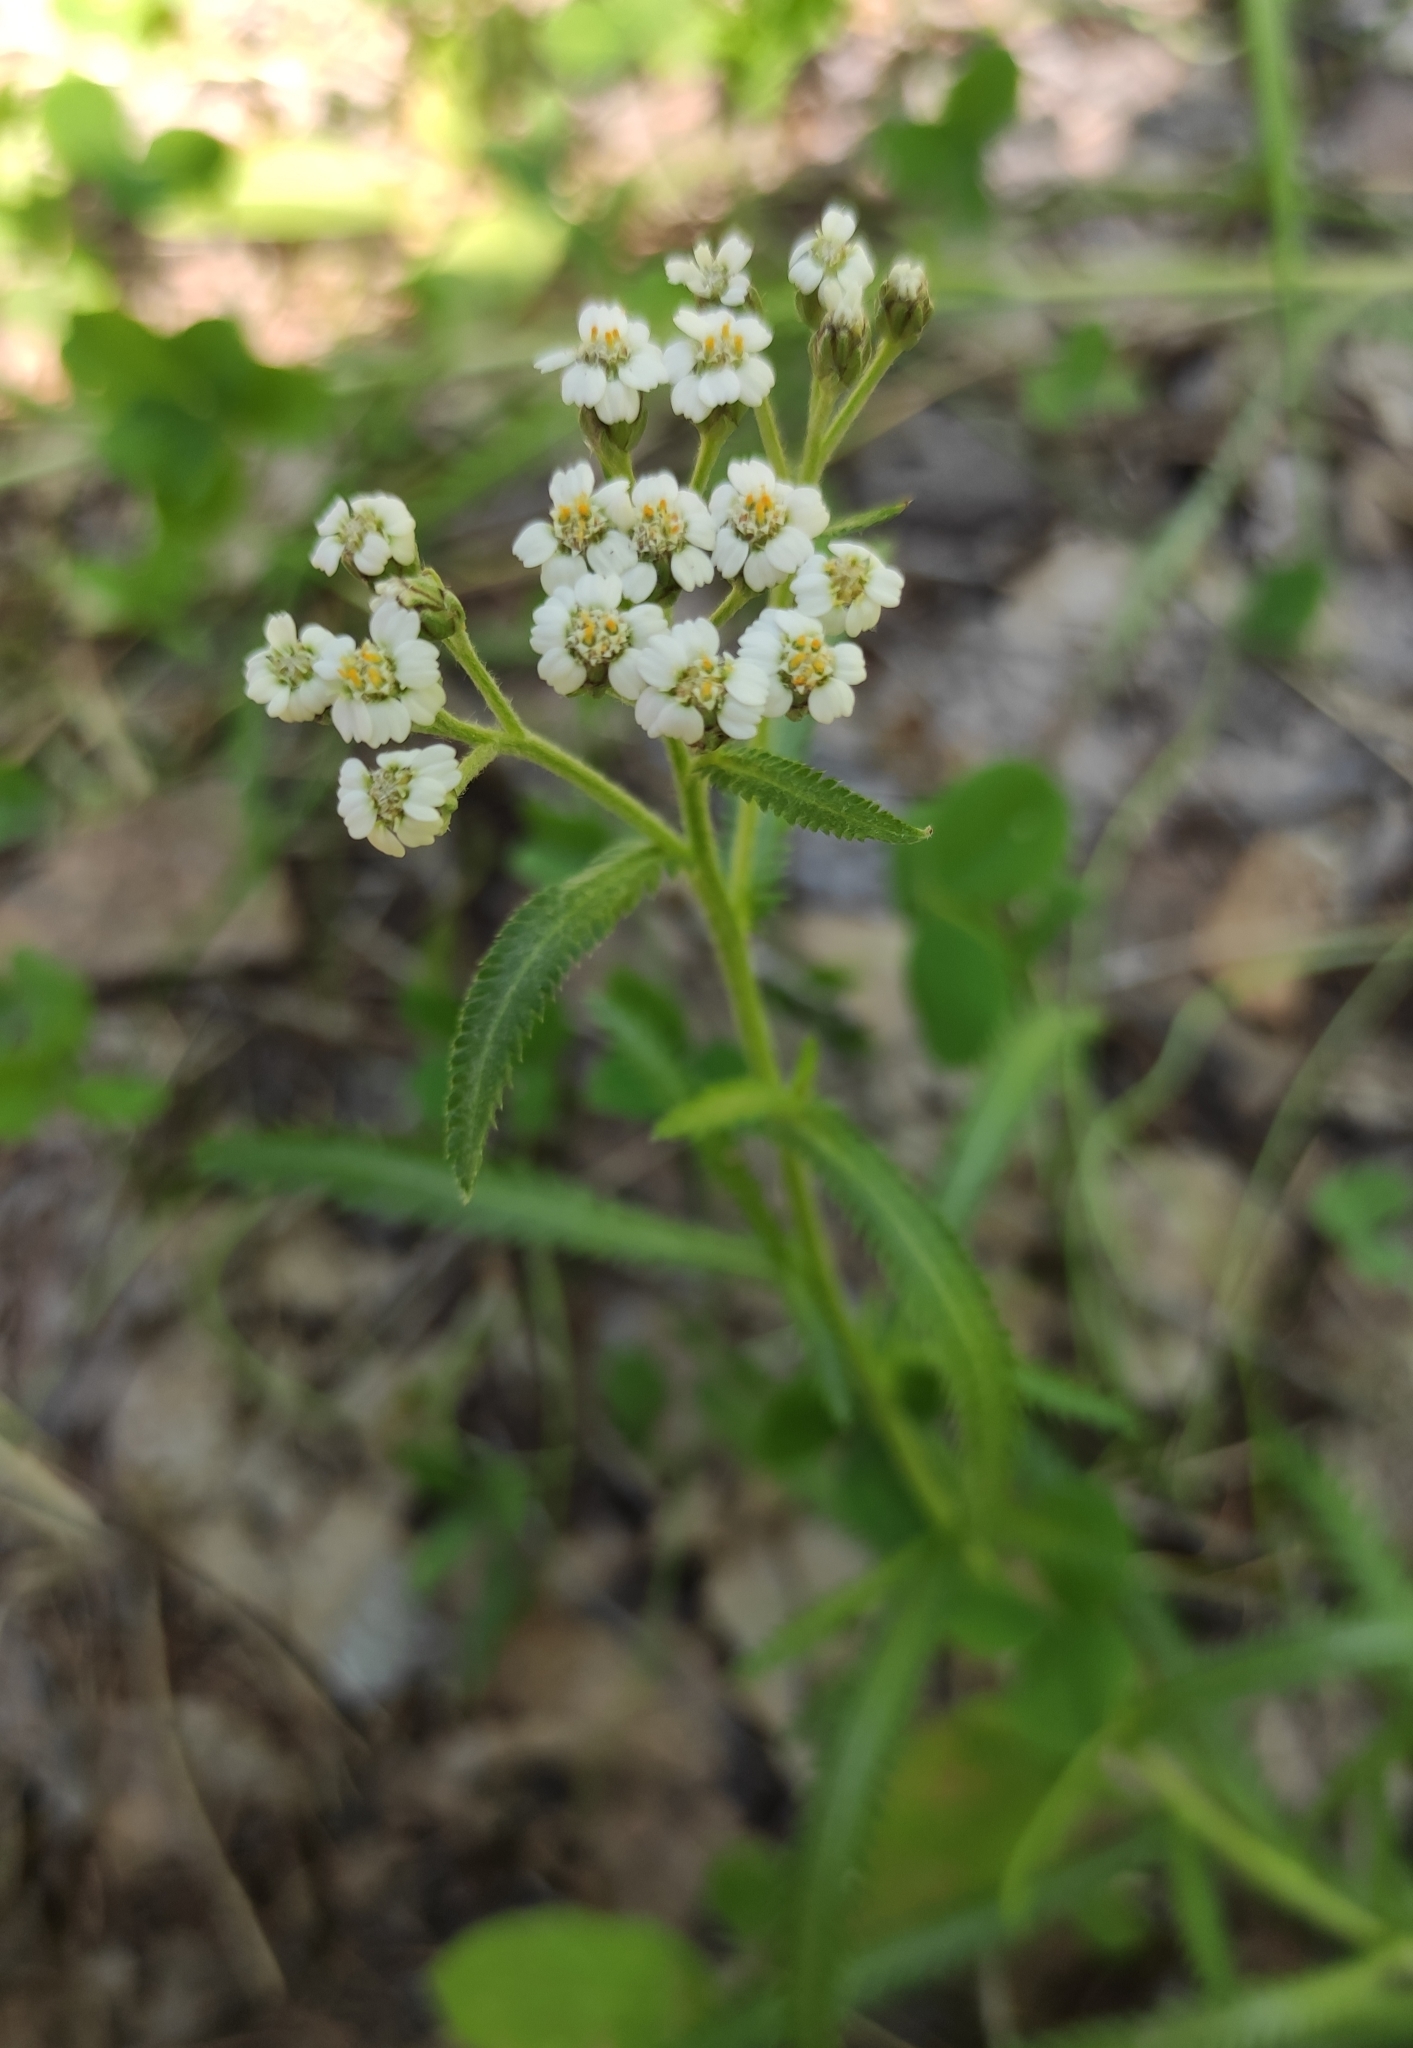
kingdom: Plantae
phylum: Tracheophyta
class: Magnoliopsida
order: Asterales
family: Asteraceae
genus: Achillea
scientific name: Achillea alpina
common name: Siberian yarrow
